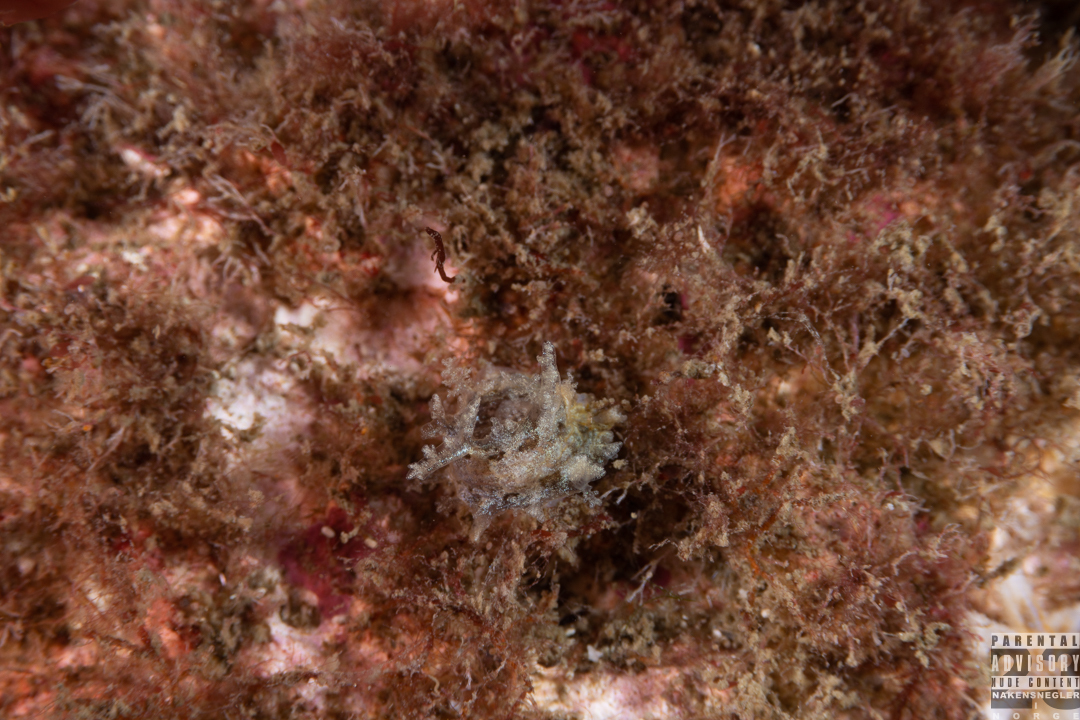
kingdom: Animalia
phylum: Mollusca
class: Gastropoda
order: Nudibranchia
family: Tritoniidae
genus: Duvaucelia
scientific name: Duvaucelia plebeia
